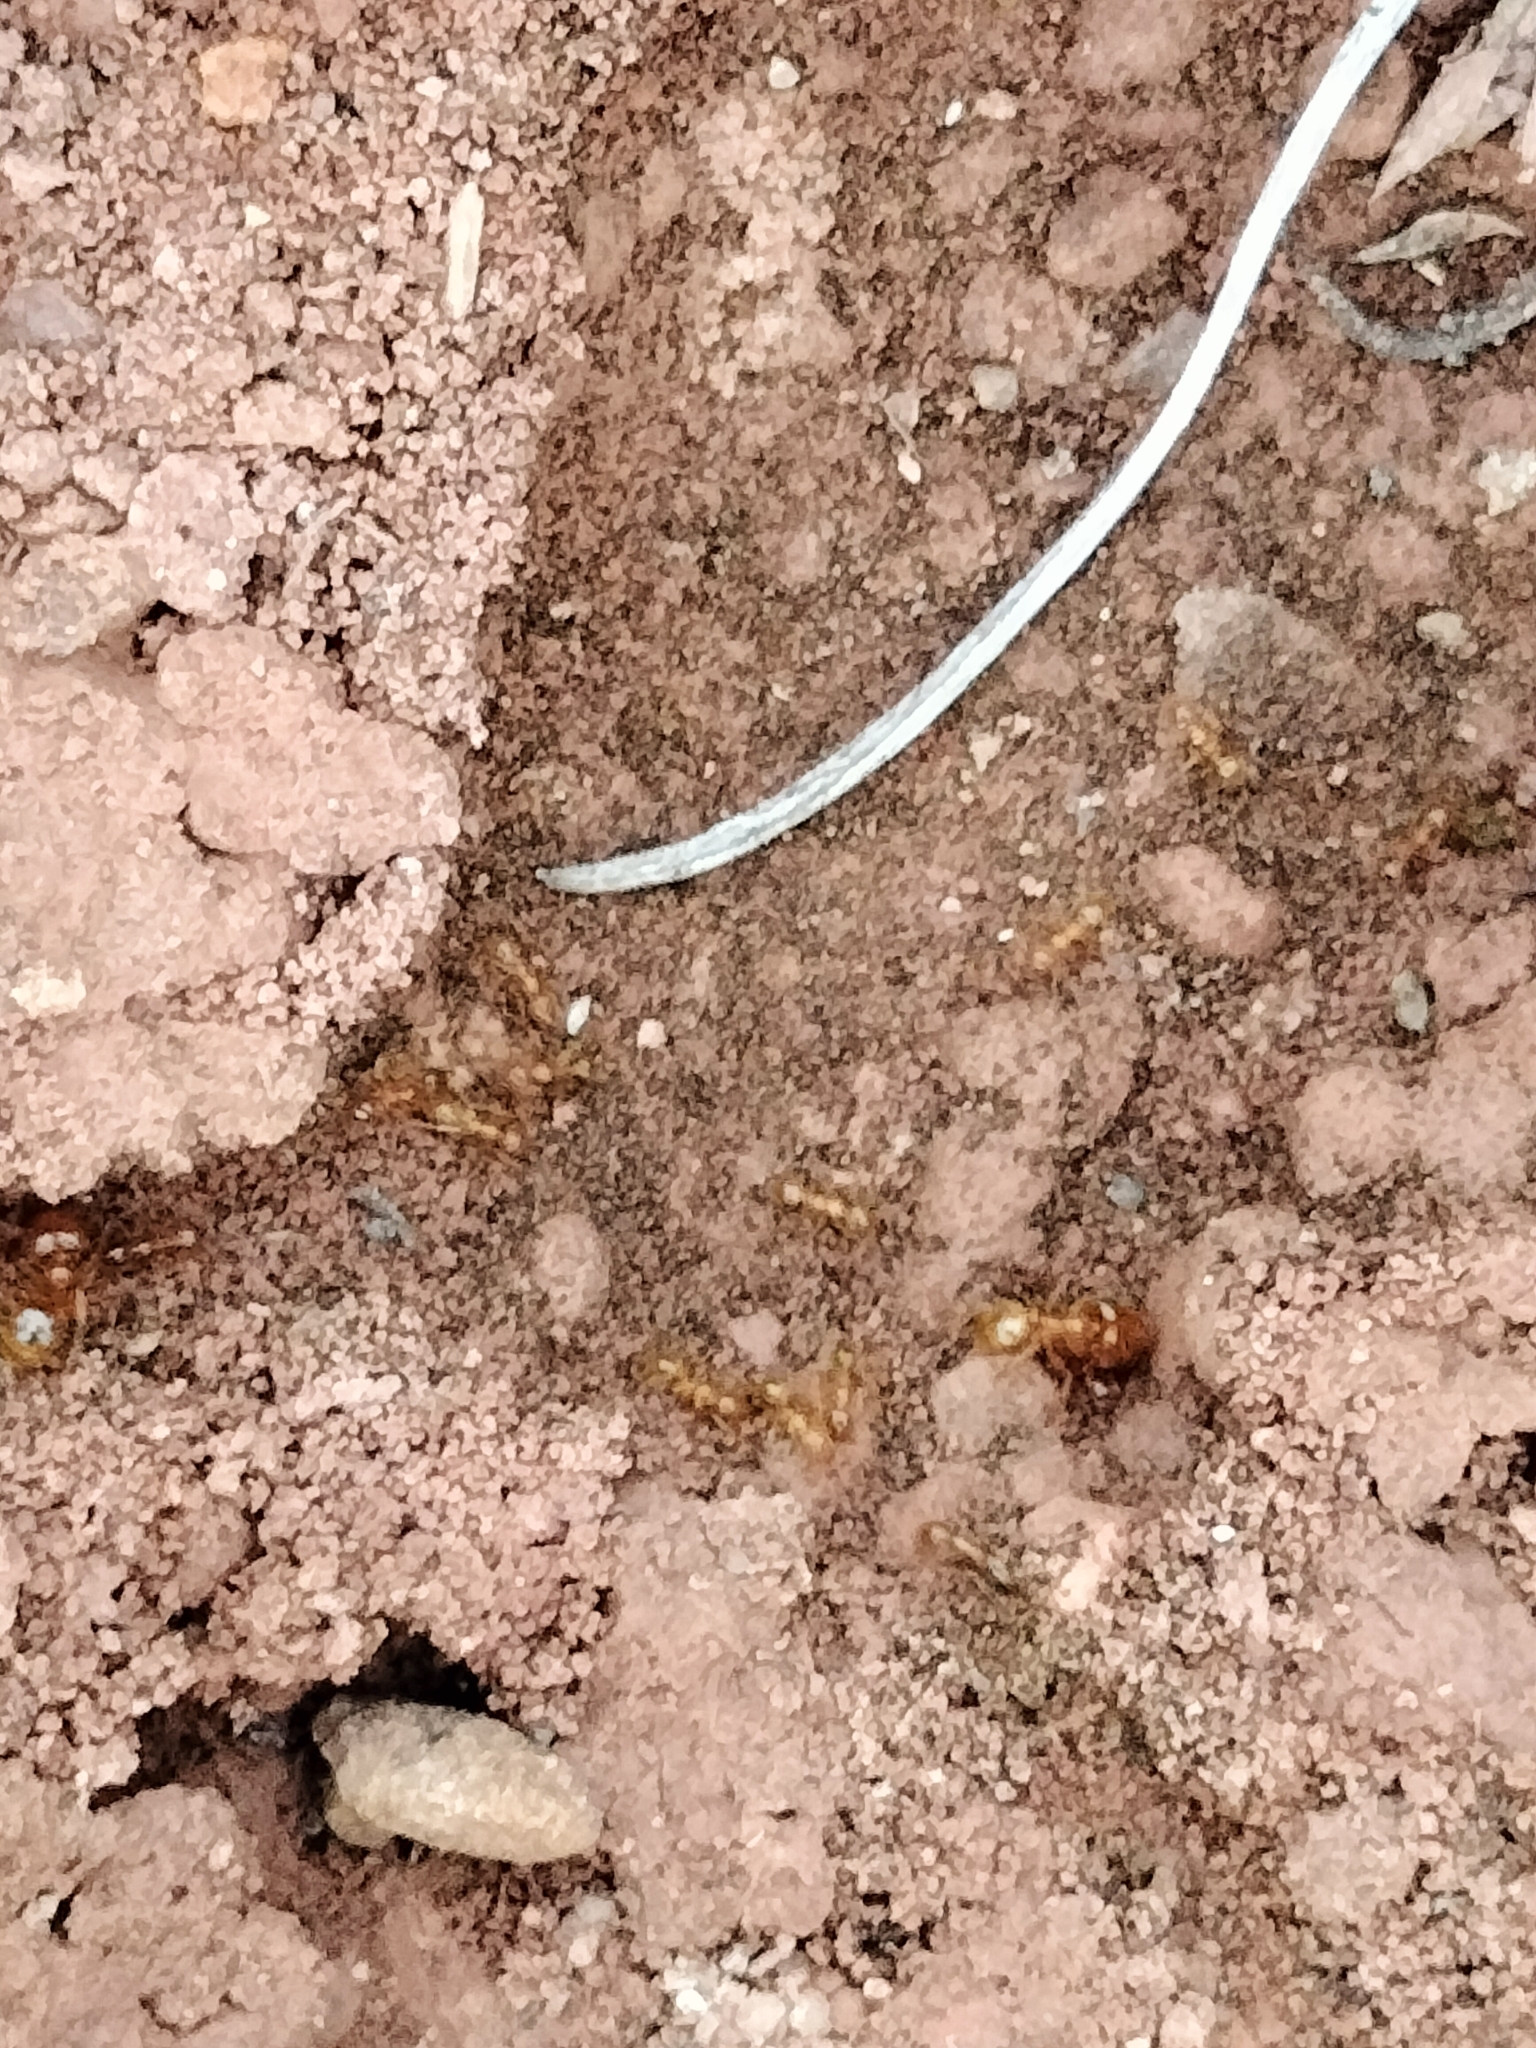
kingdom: Animalia
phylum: Arthropoda
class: Insecta
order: Hymenoptera
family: Formicidae
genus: Pheidole
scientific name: Pheidole pallidula
